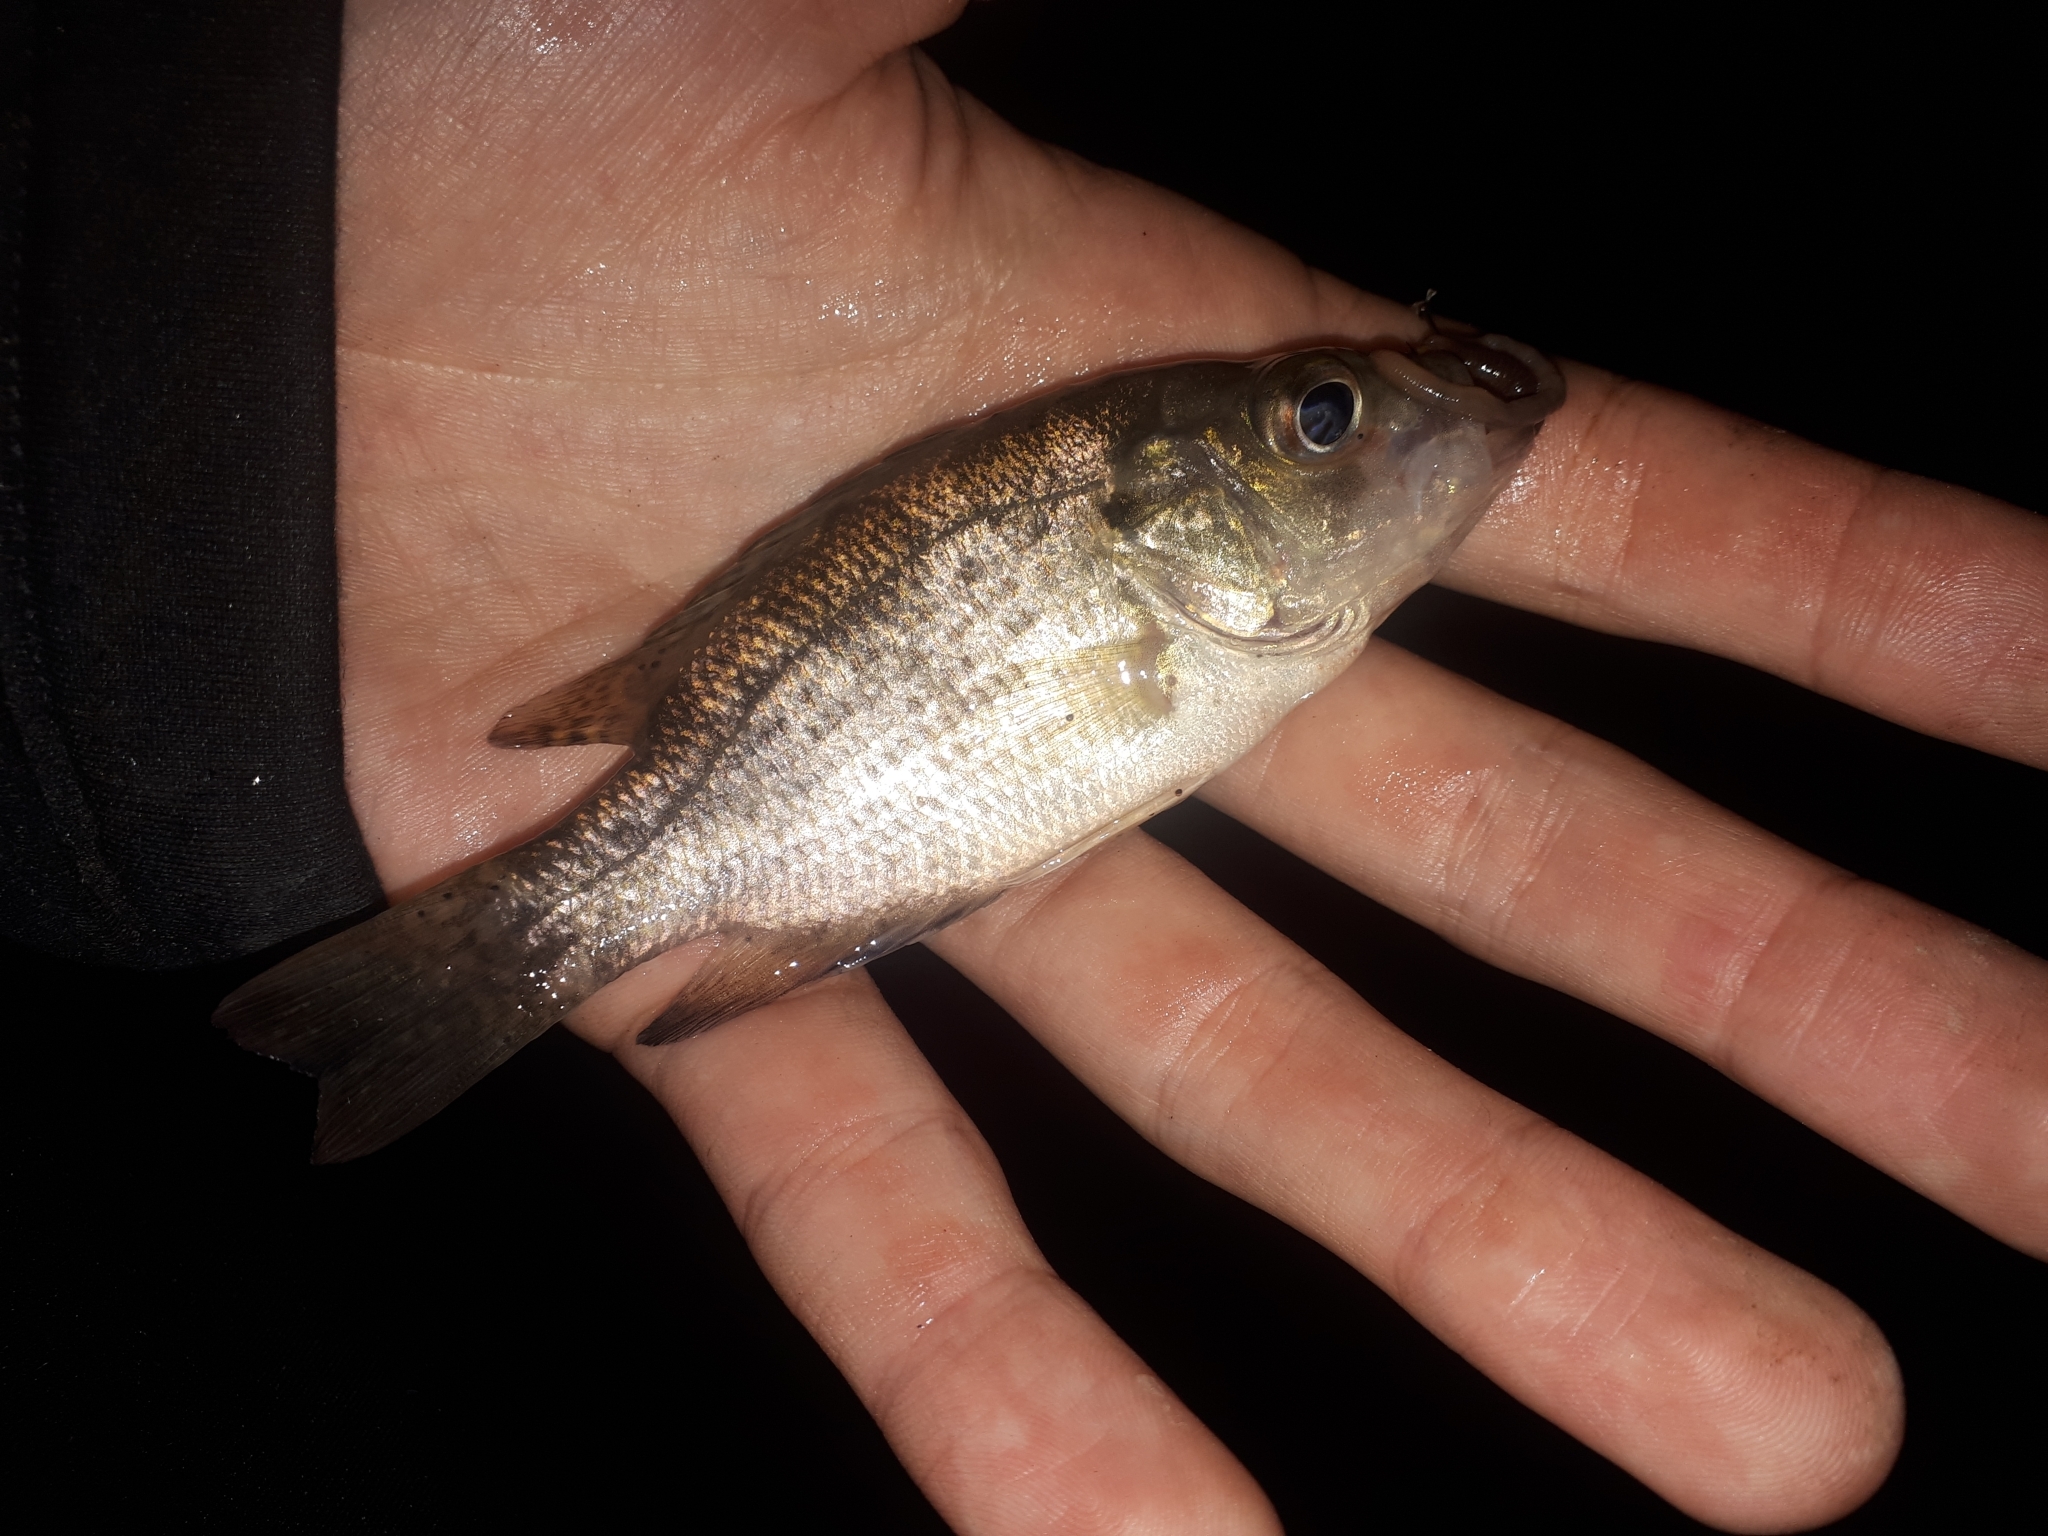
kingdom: Animalia
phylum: Chordata
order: Perciformes
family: Centrarchidae
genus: Ambloplites
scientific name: Ambloplites rupestris
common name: Rock bass
